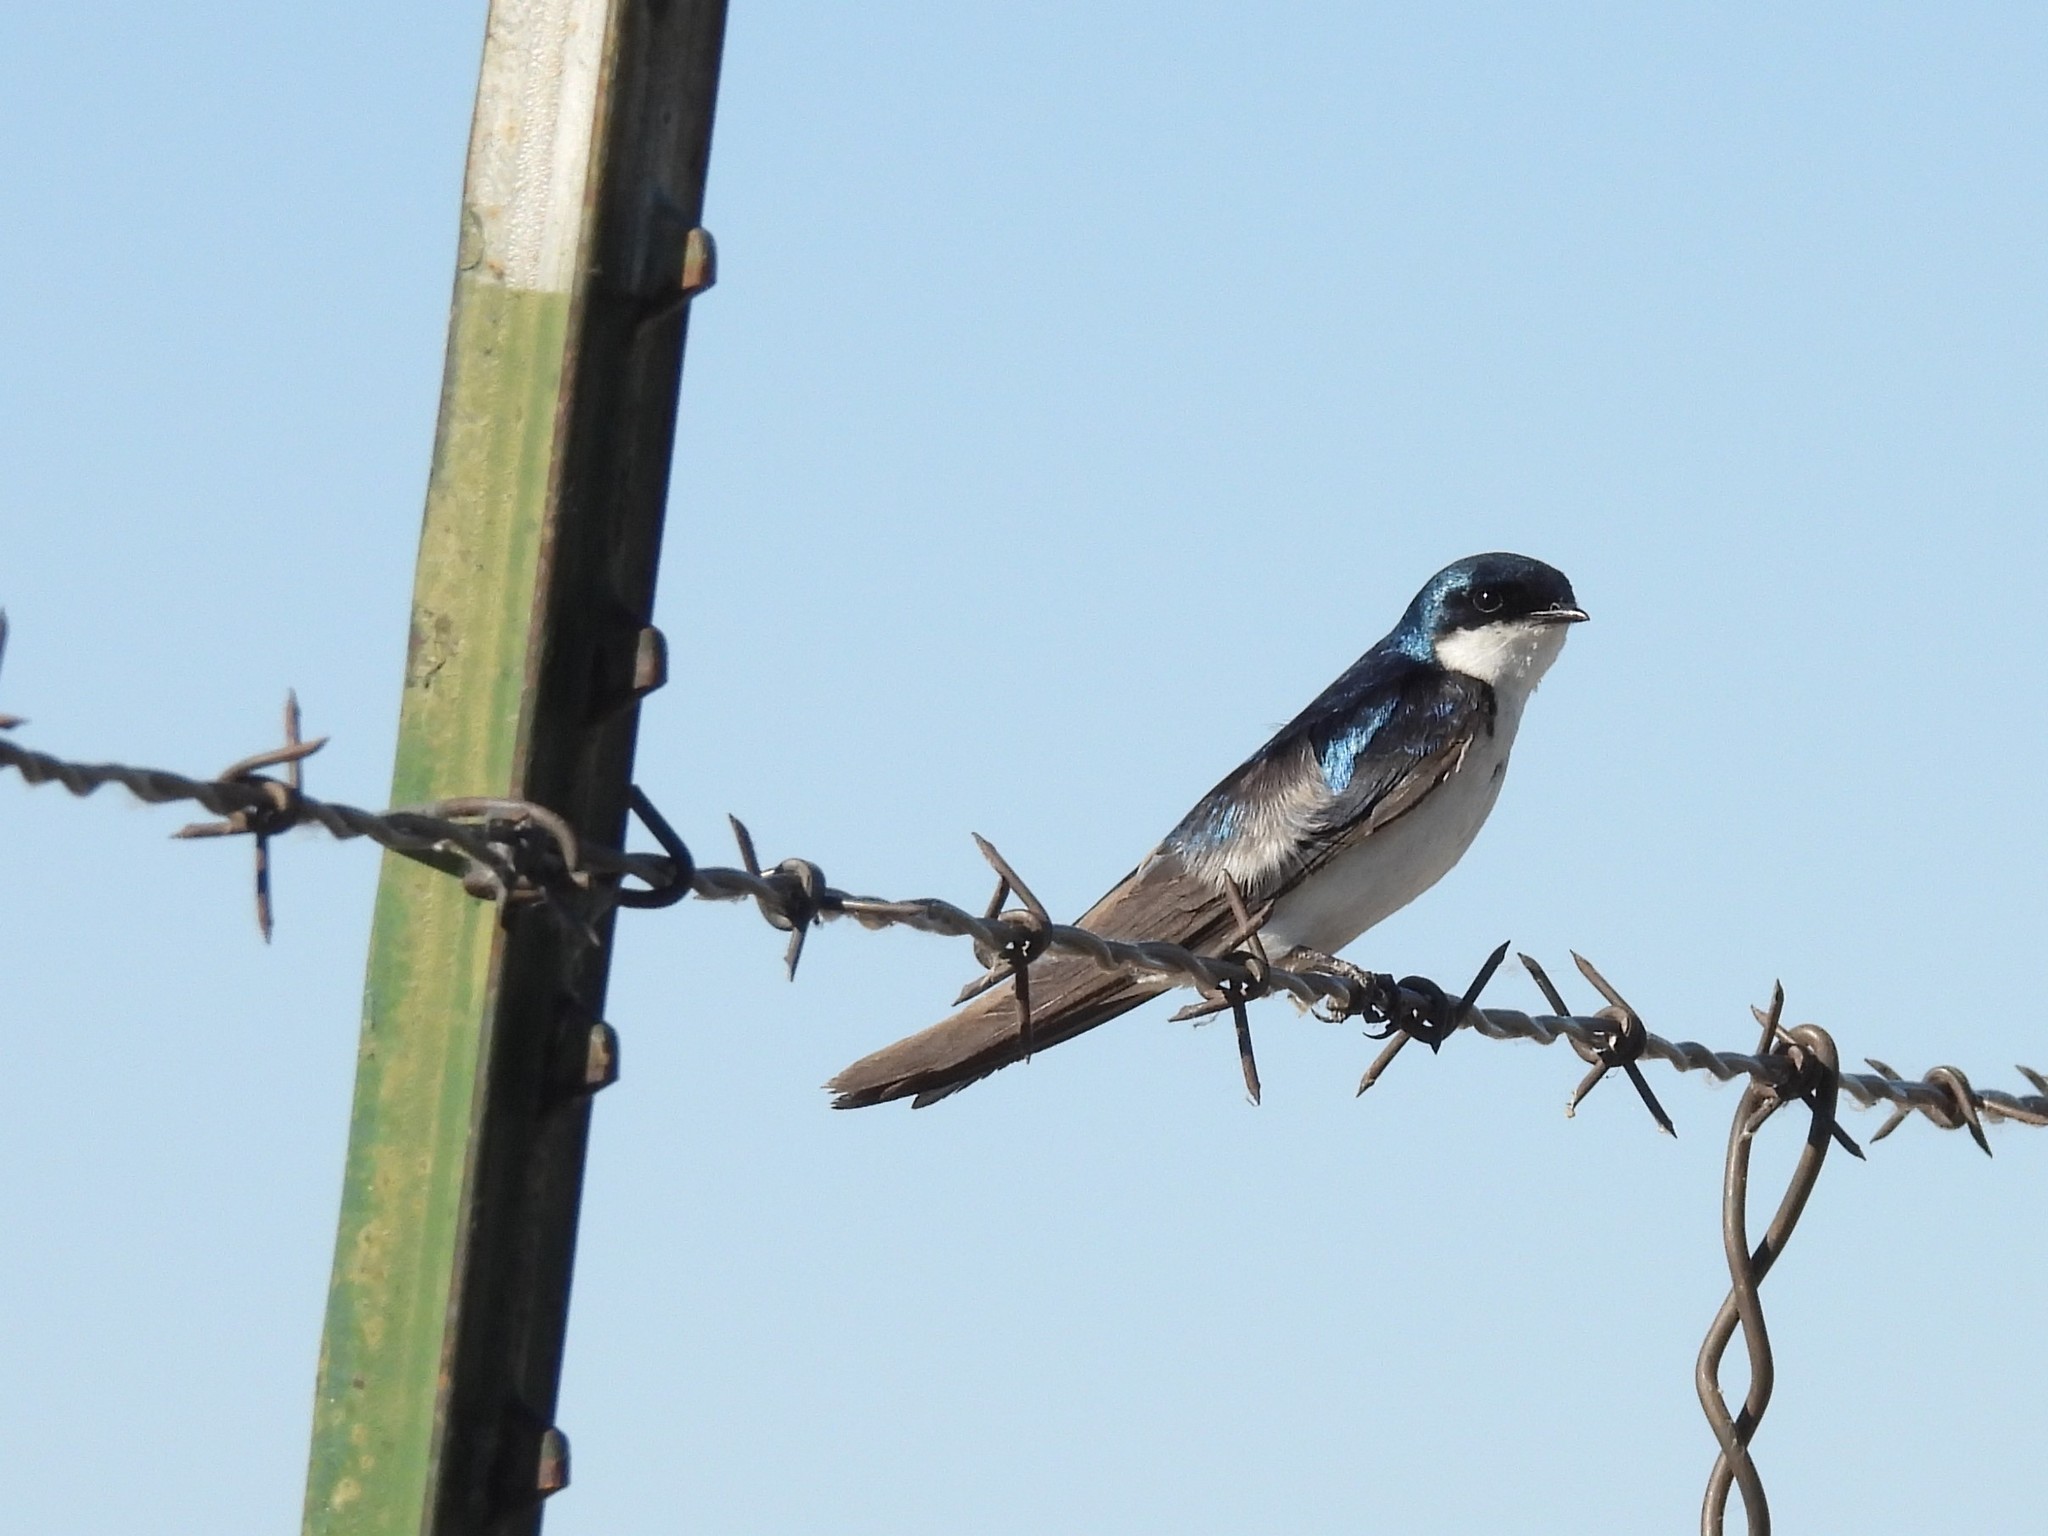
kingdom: Animalia
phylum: Chordata
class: Aves
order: Passeriformes
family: Hirundinidae
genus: Tachycineta
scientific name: Tachycineta bicolor
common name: Tree swallow
